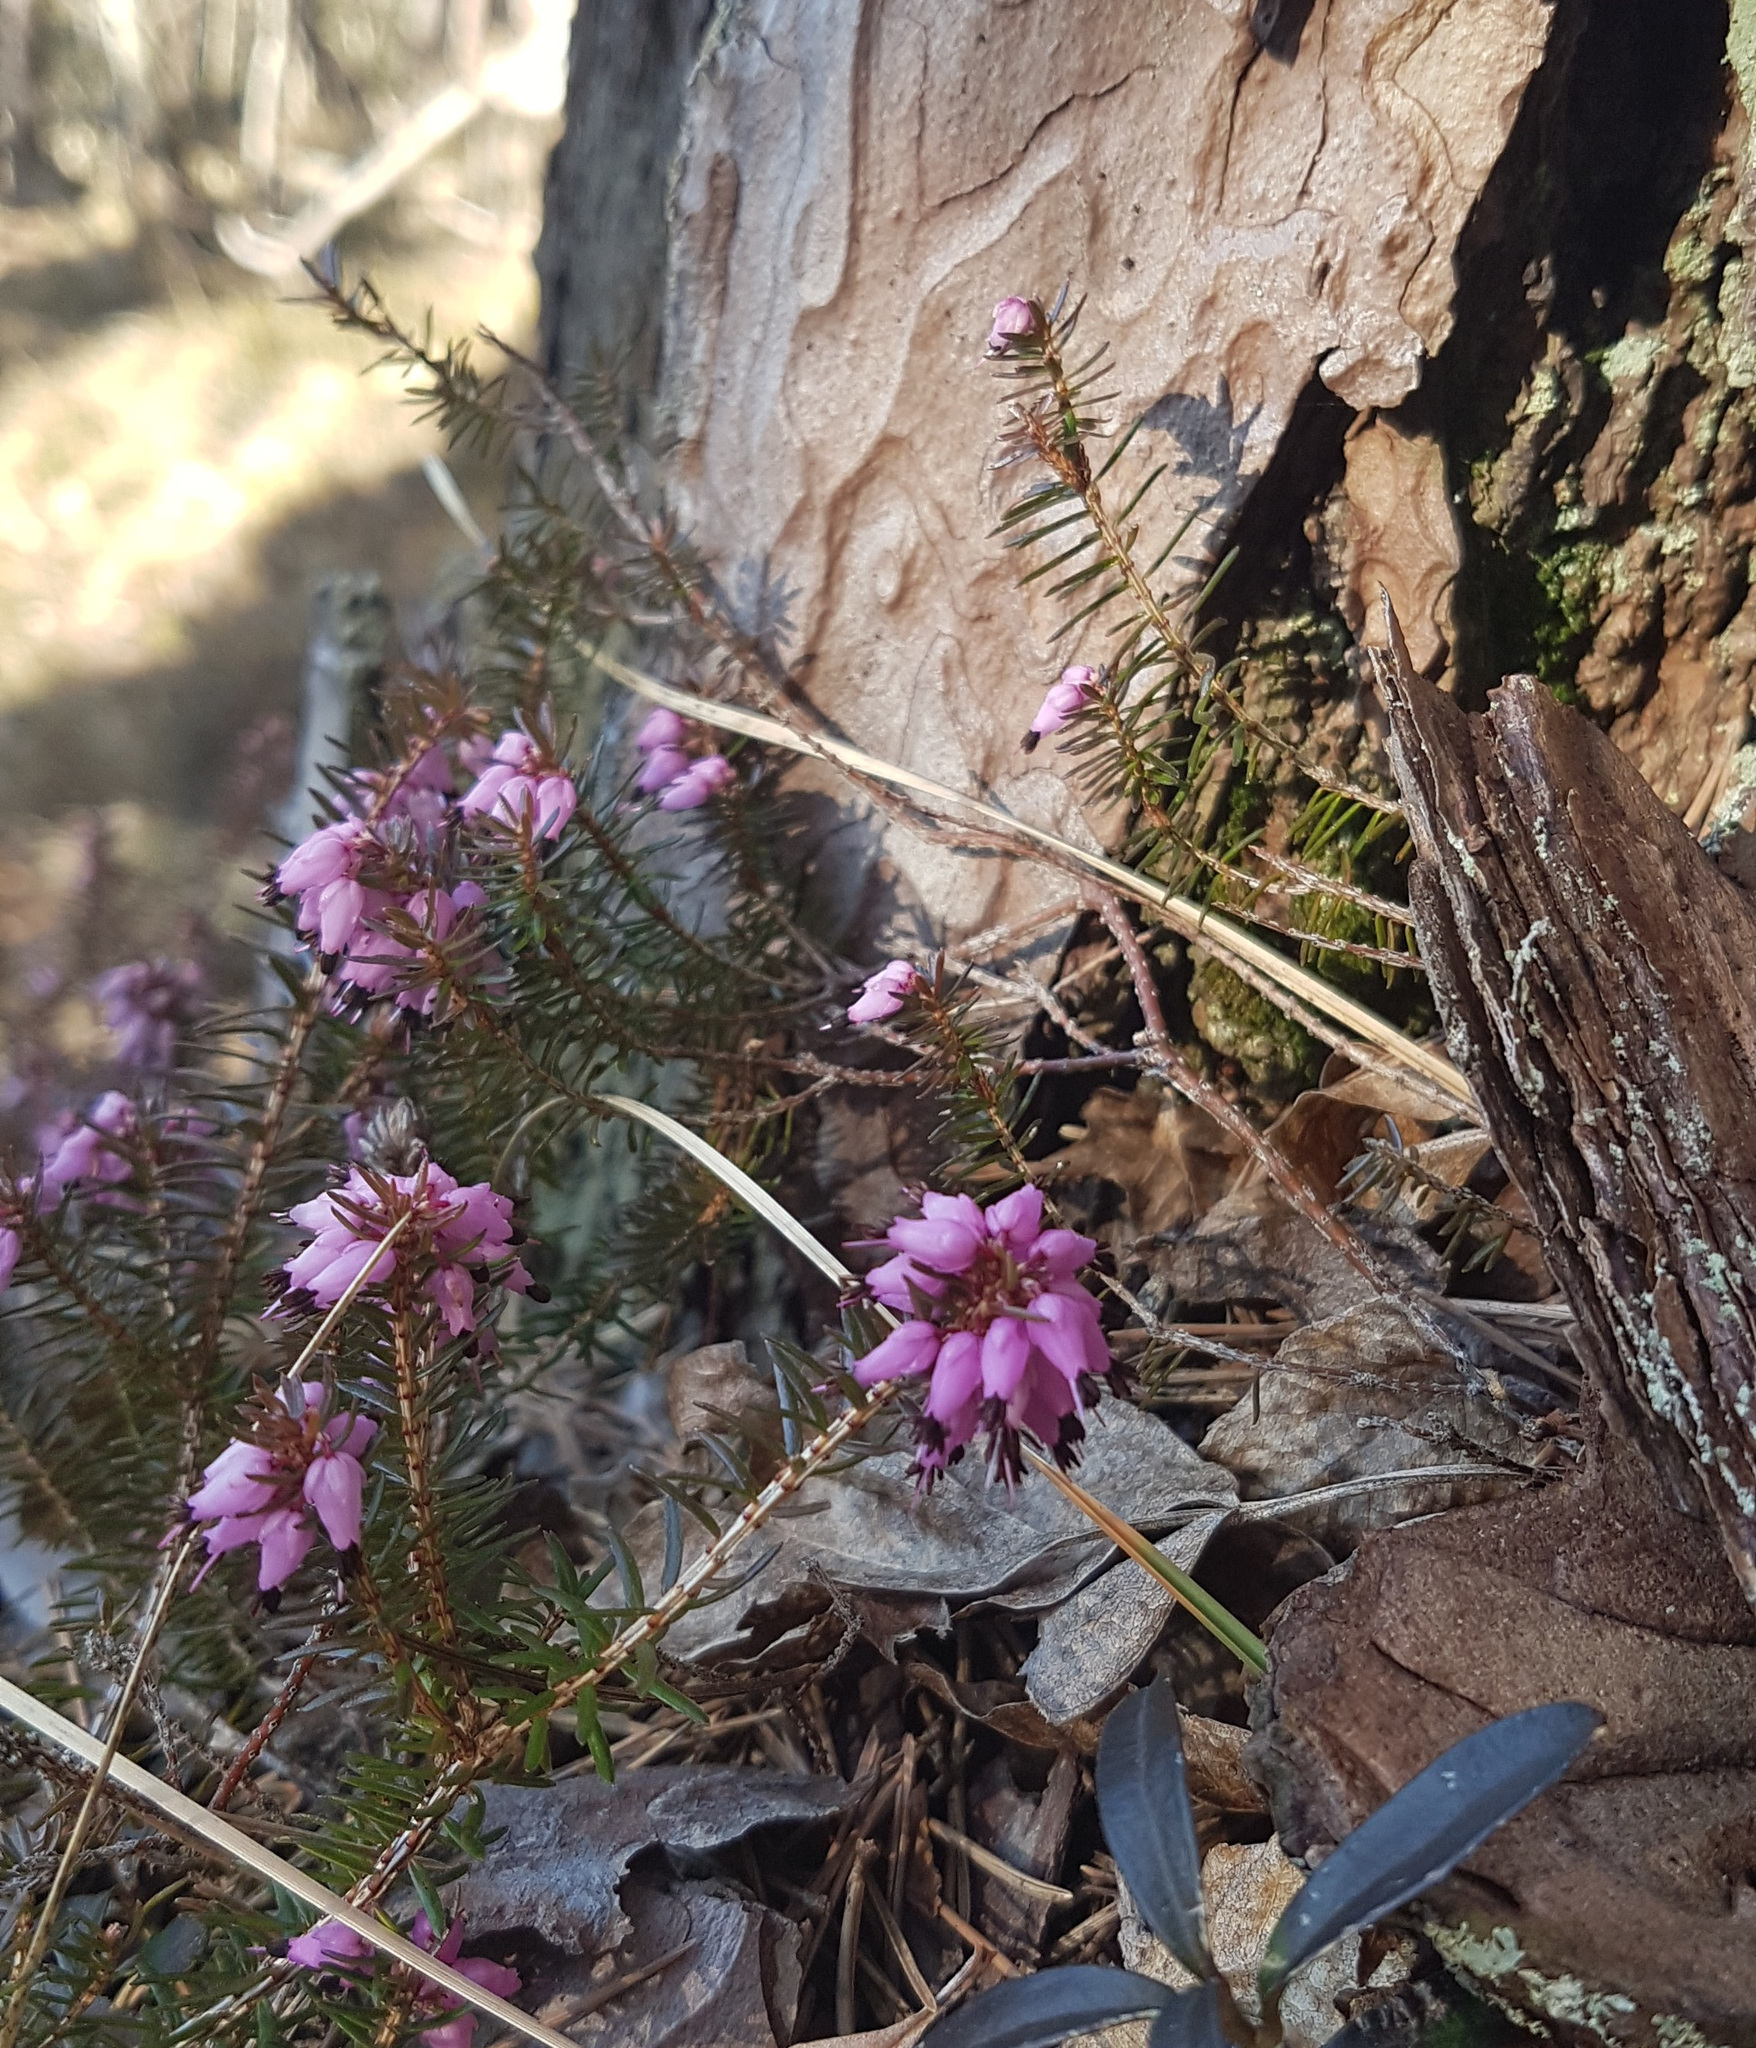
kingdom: Plantae
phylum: Tracheophyta
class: Magnoliopsida
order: Ericales
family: Ericaceae
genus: Erica
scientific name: Erica carnea
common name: Winter heath
